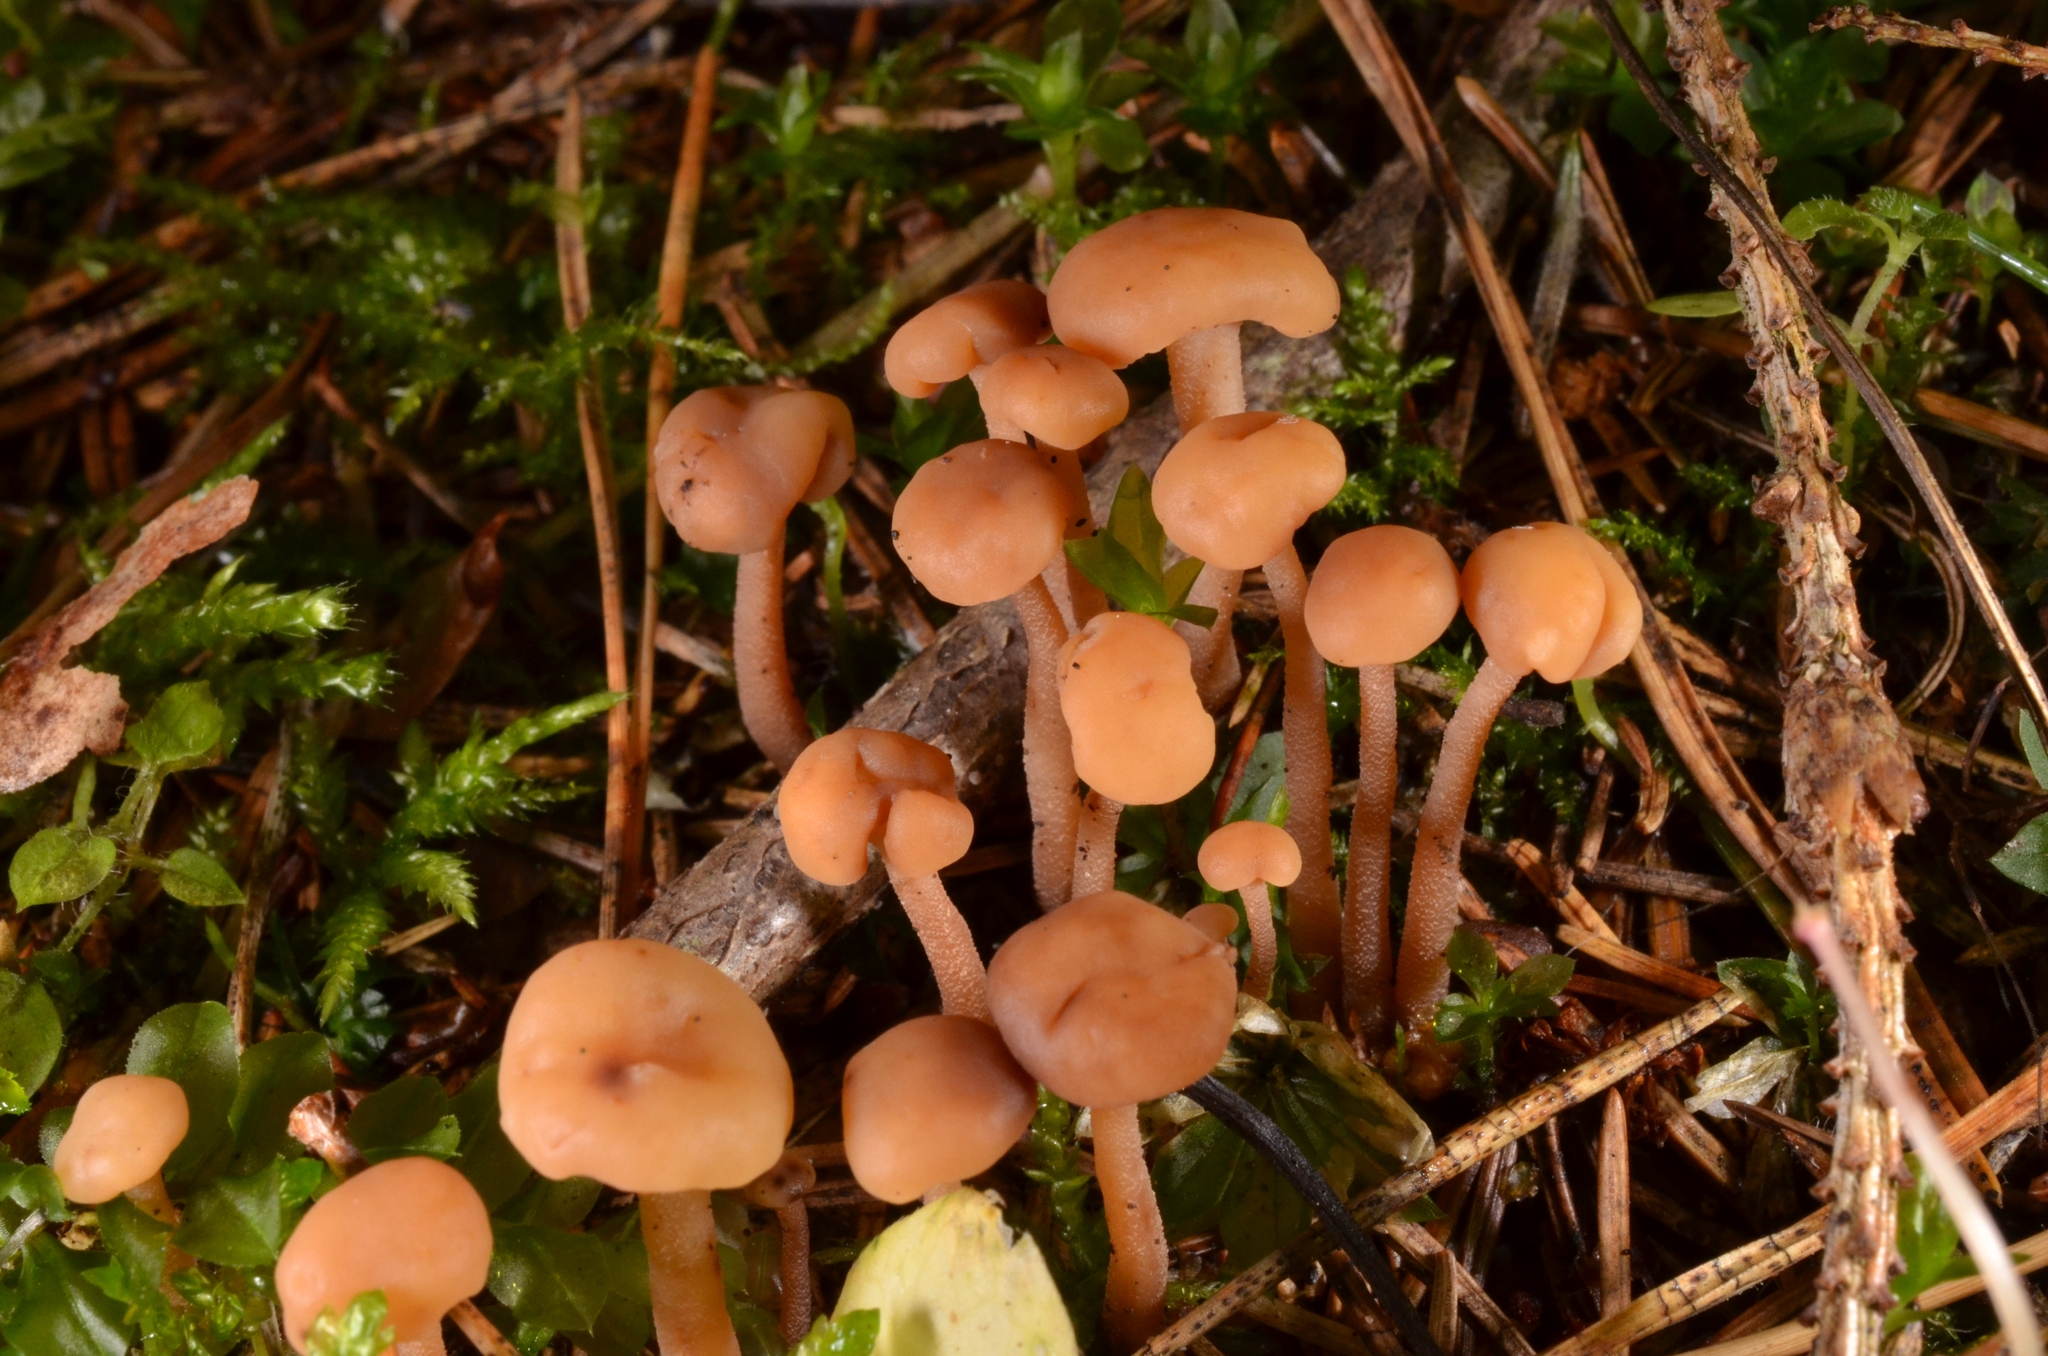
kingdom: Fungi
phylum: Ascomycota
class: Leotiomycetes
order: Rhytismatales
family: Cudoniaceae
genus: Cudonia
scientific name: Cudonia confusa
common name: Cinnamon jellybaby
